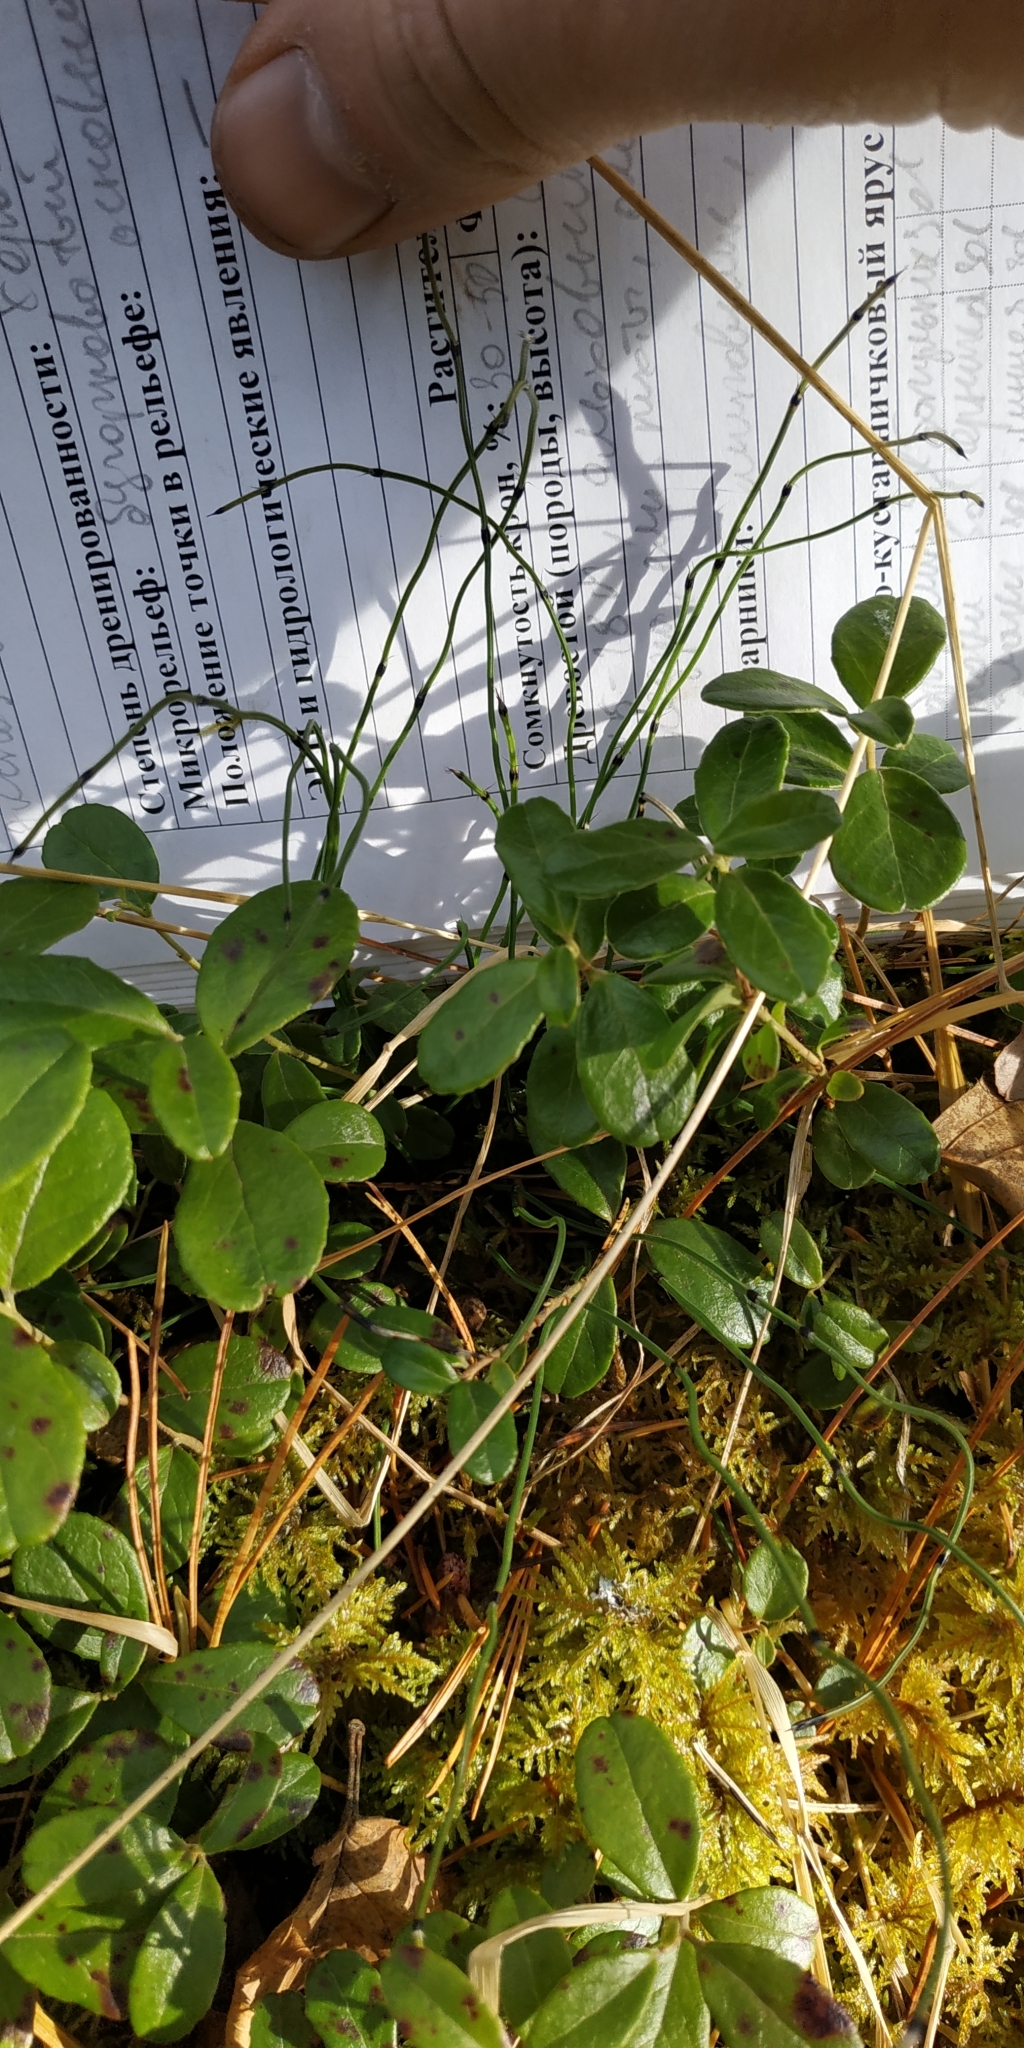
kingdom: Plantae
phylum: Tracheophyta
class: Polypodiopsida
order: Equisetales
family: Equisetaceae
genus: Equisetum
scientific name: Equisetum scirpoides
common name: Delicate horsetail
